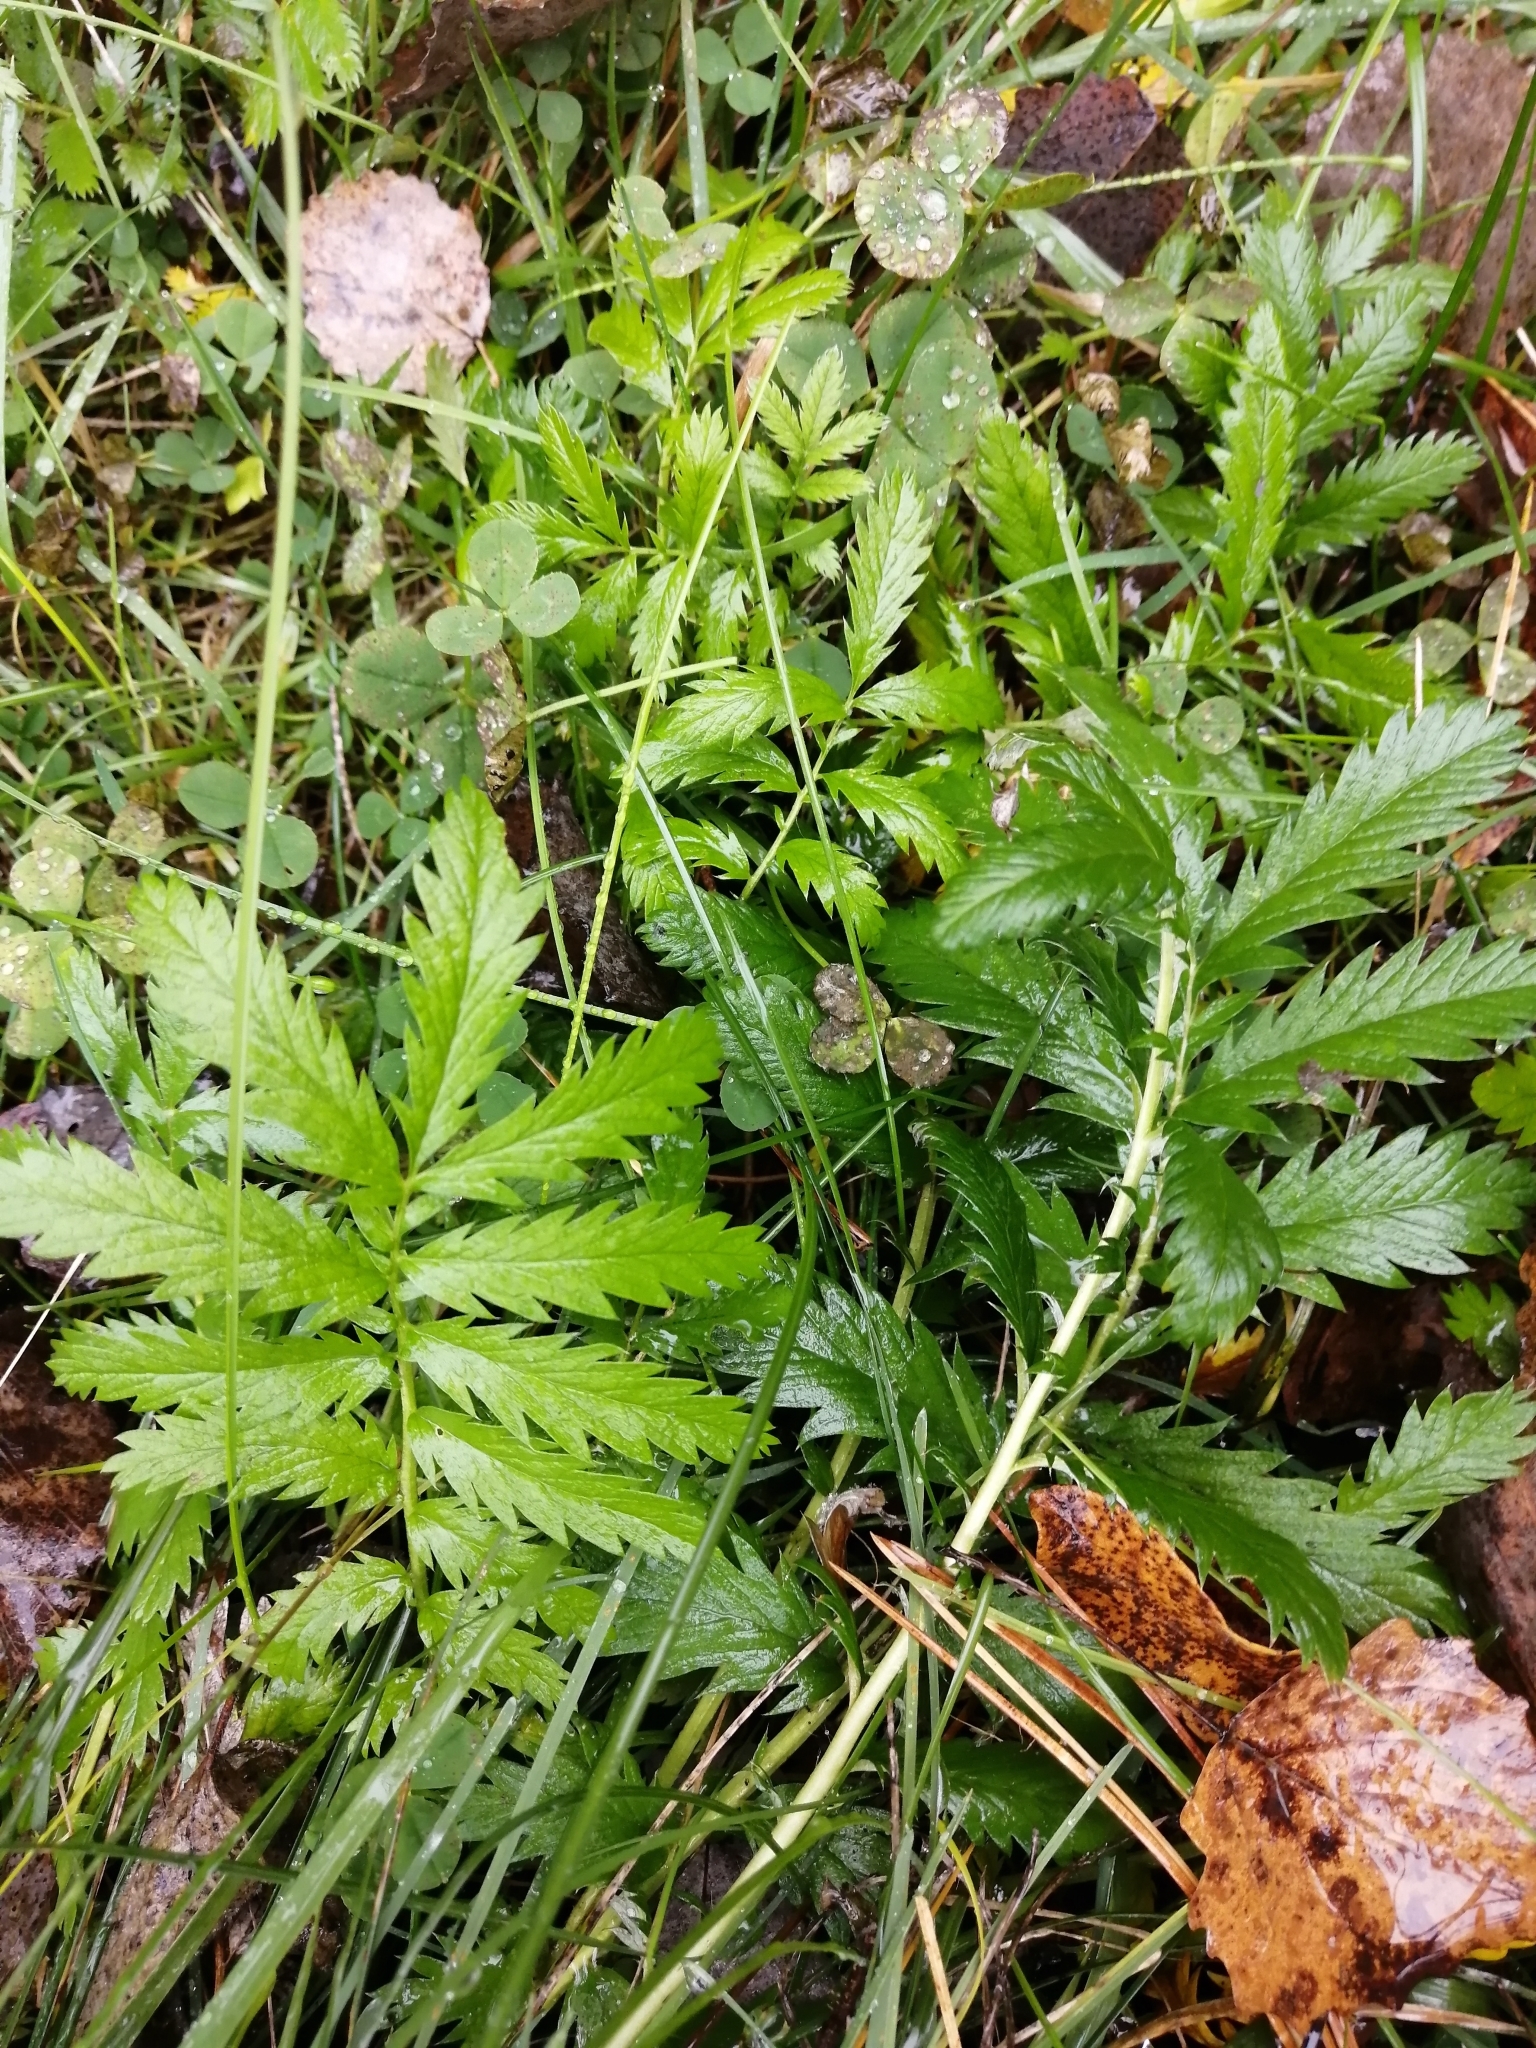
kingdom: Plantae
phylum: Tracheophyta
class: Magnoliopsida
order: Rosales
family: Rosaceae
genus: Argentina
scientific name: Argentina anserina
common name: Common silverweed
